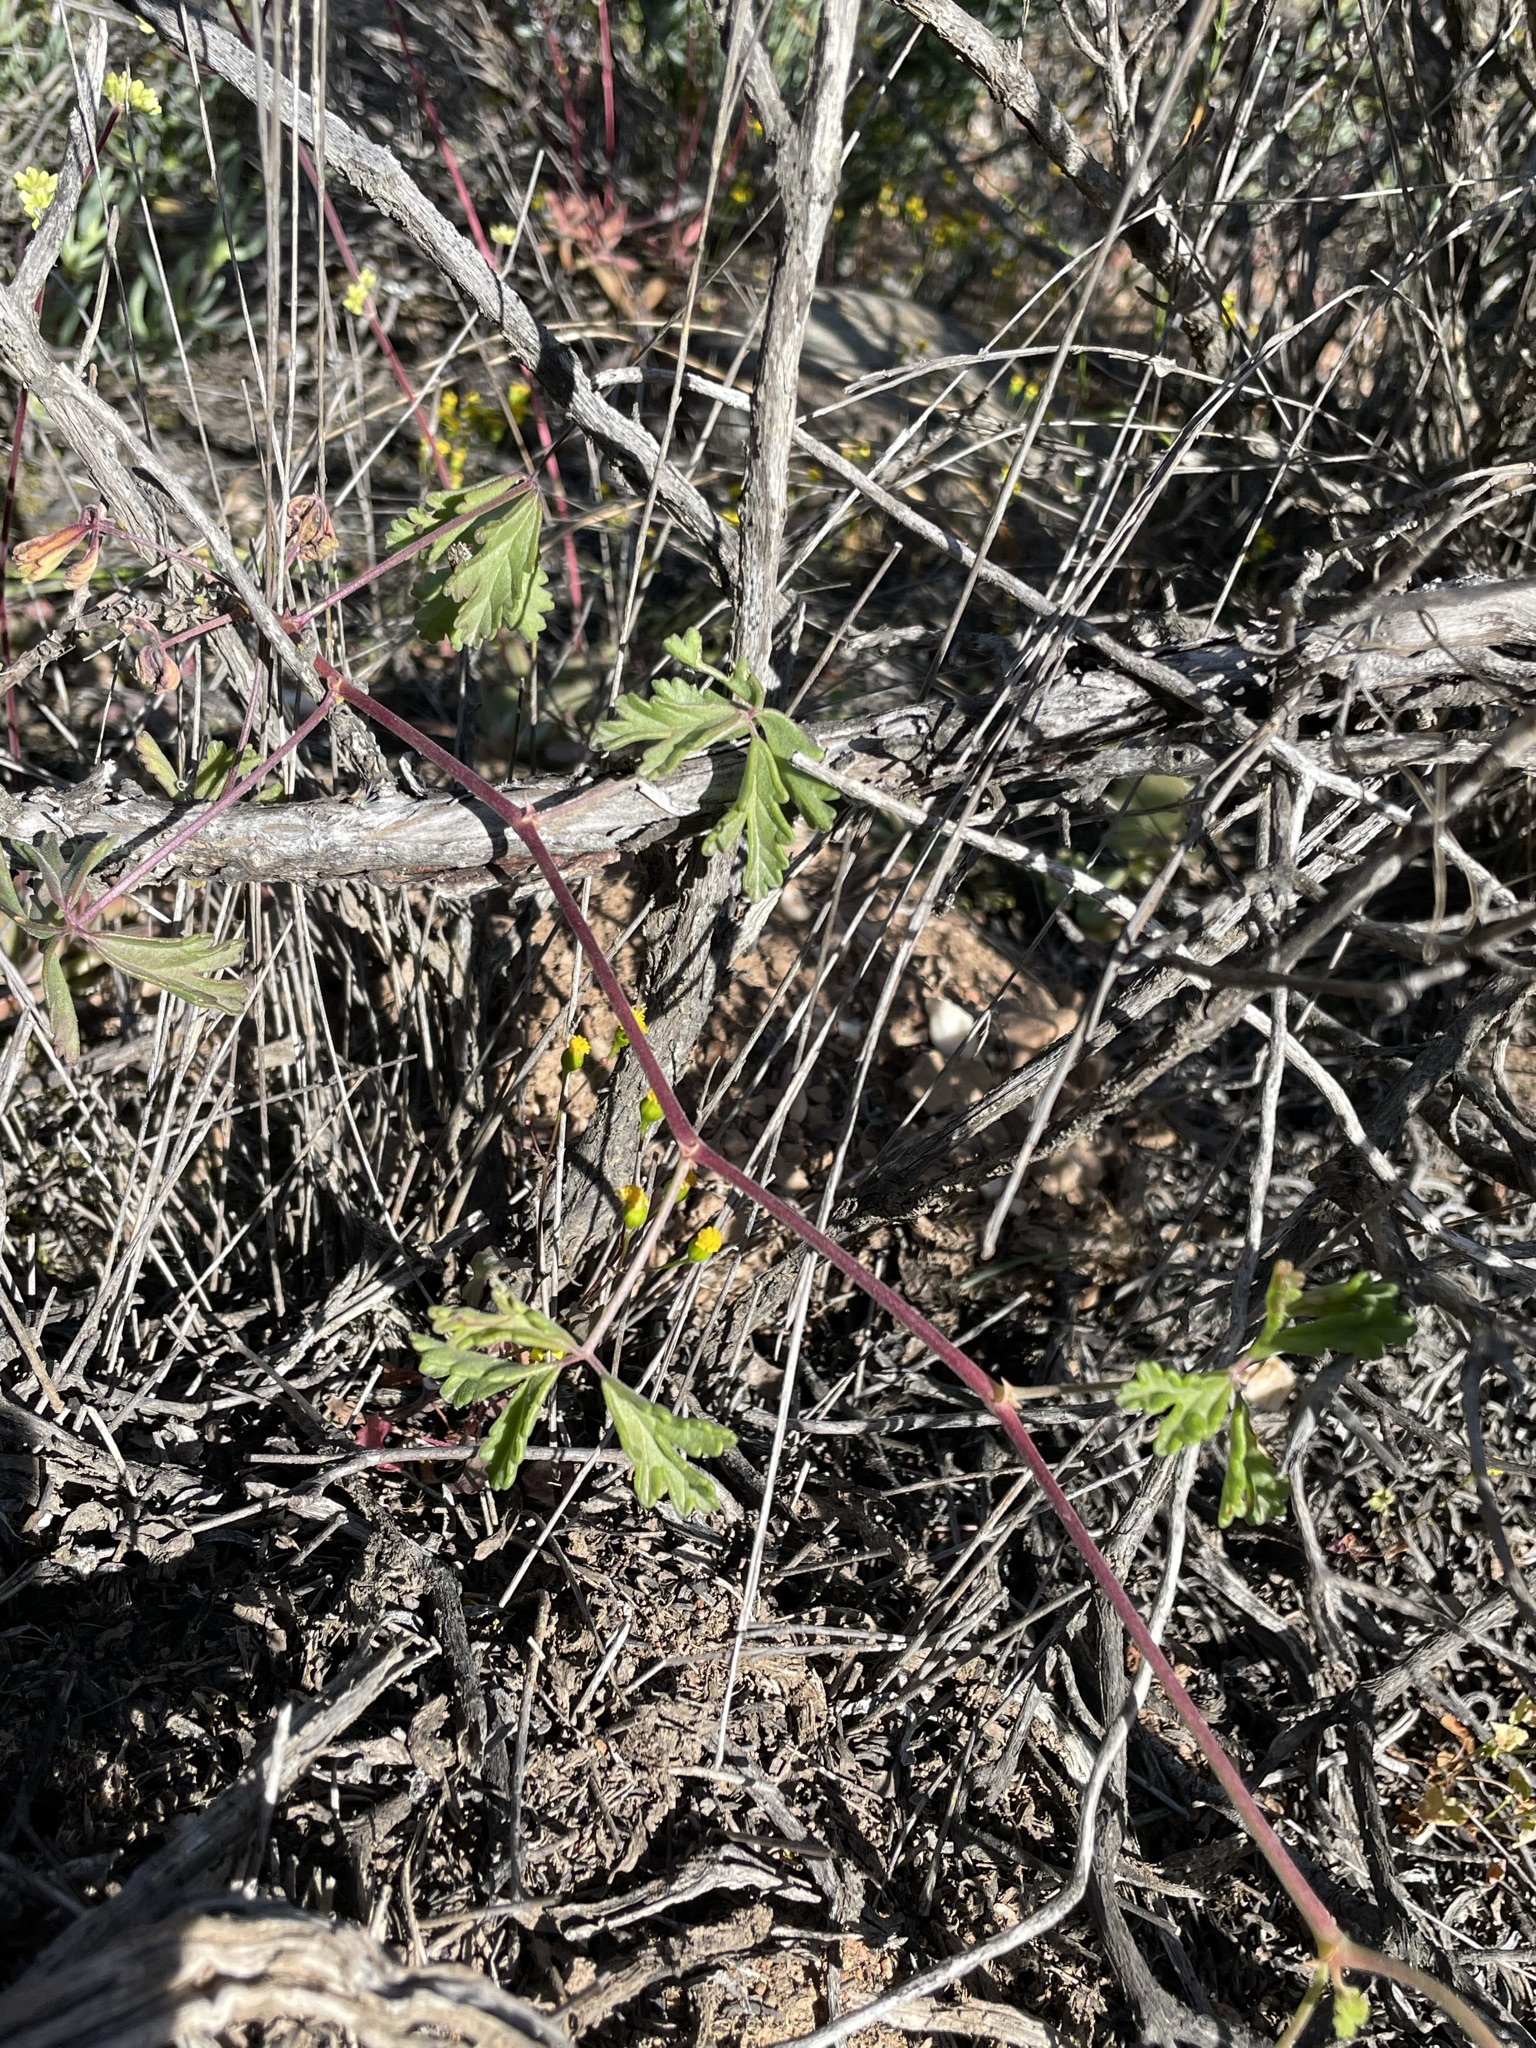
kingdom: Plantae
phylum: Tracheophyta
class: Magnoliopsida
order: Geraniales
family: Geraniaceae
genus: Pelargonium
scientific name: Pelargonium trifidum
